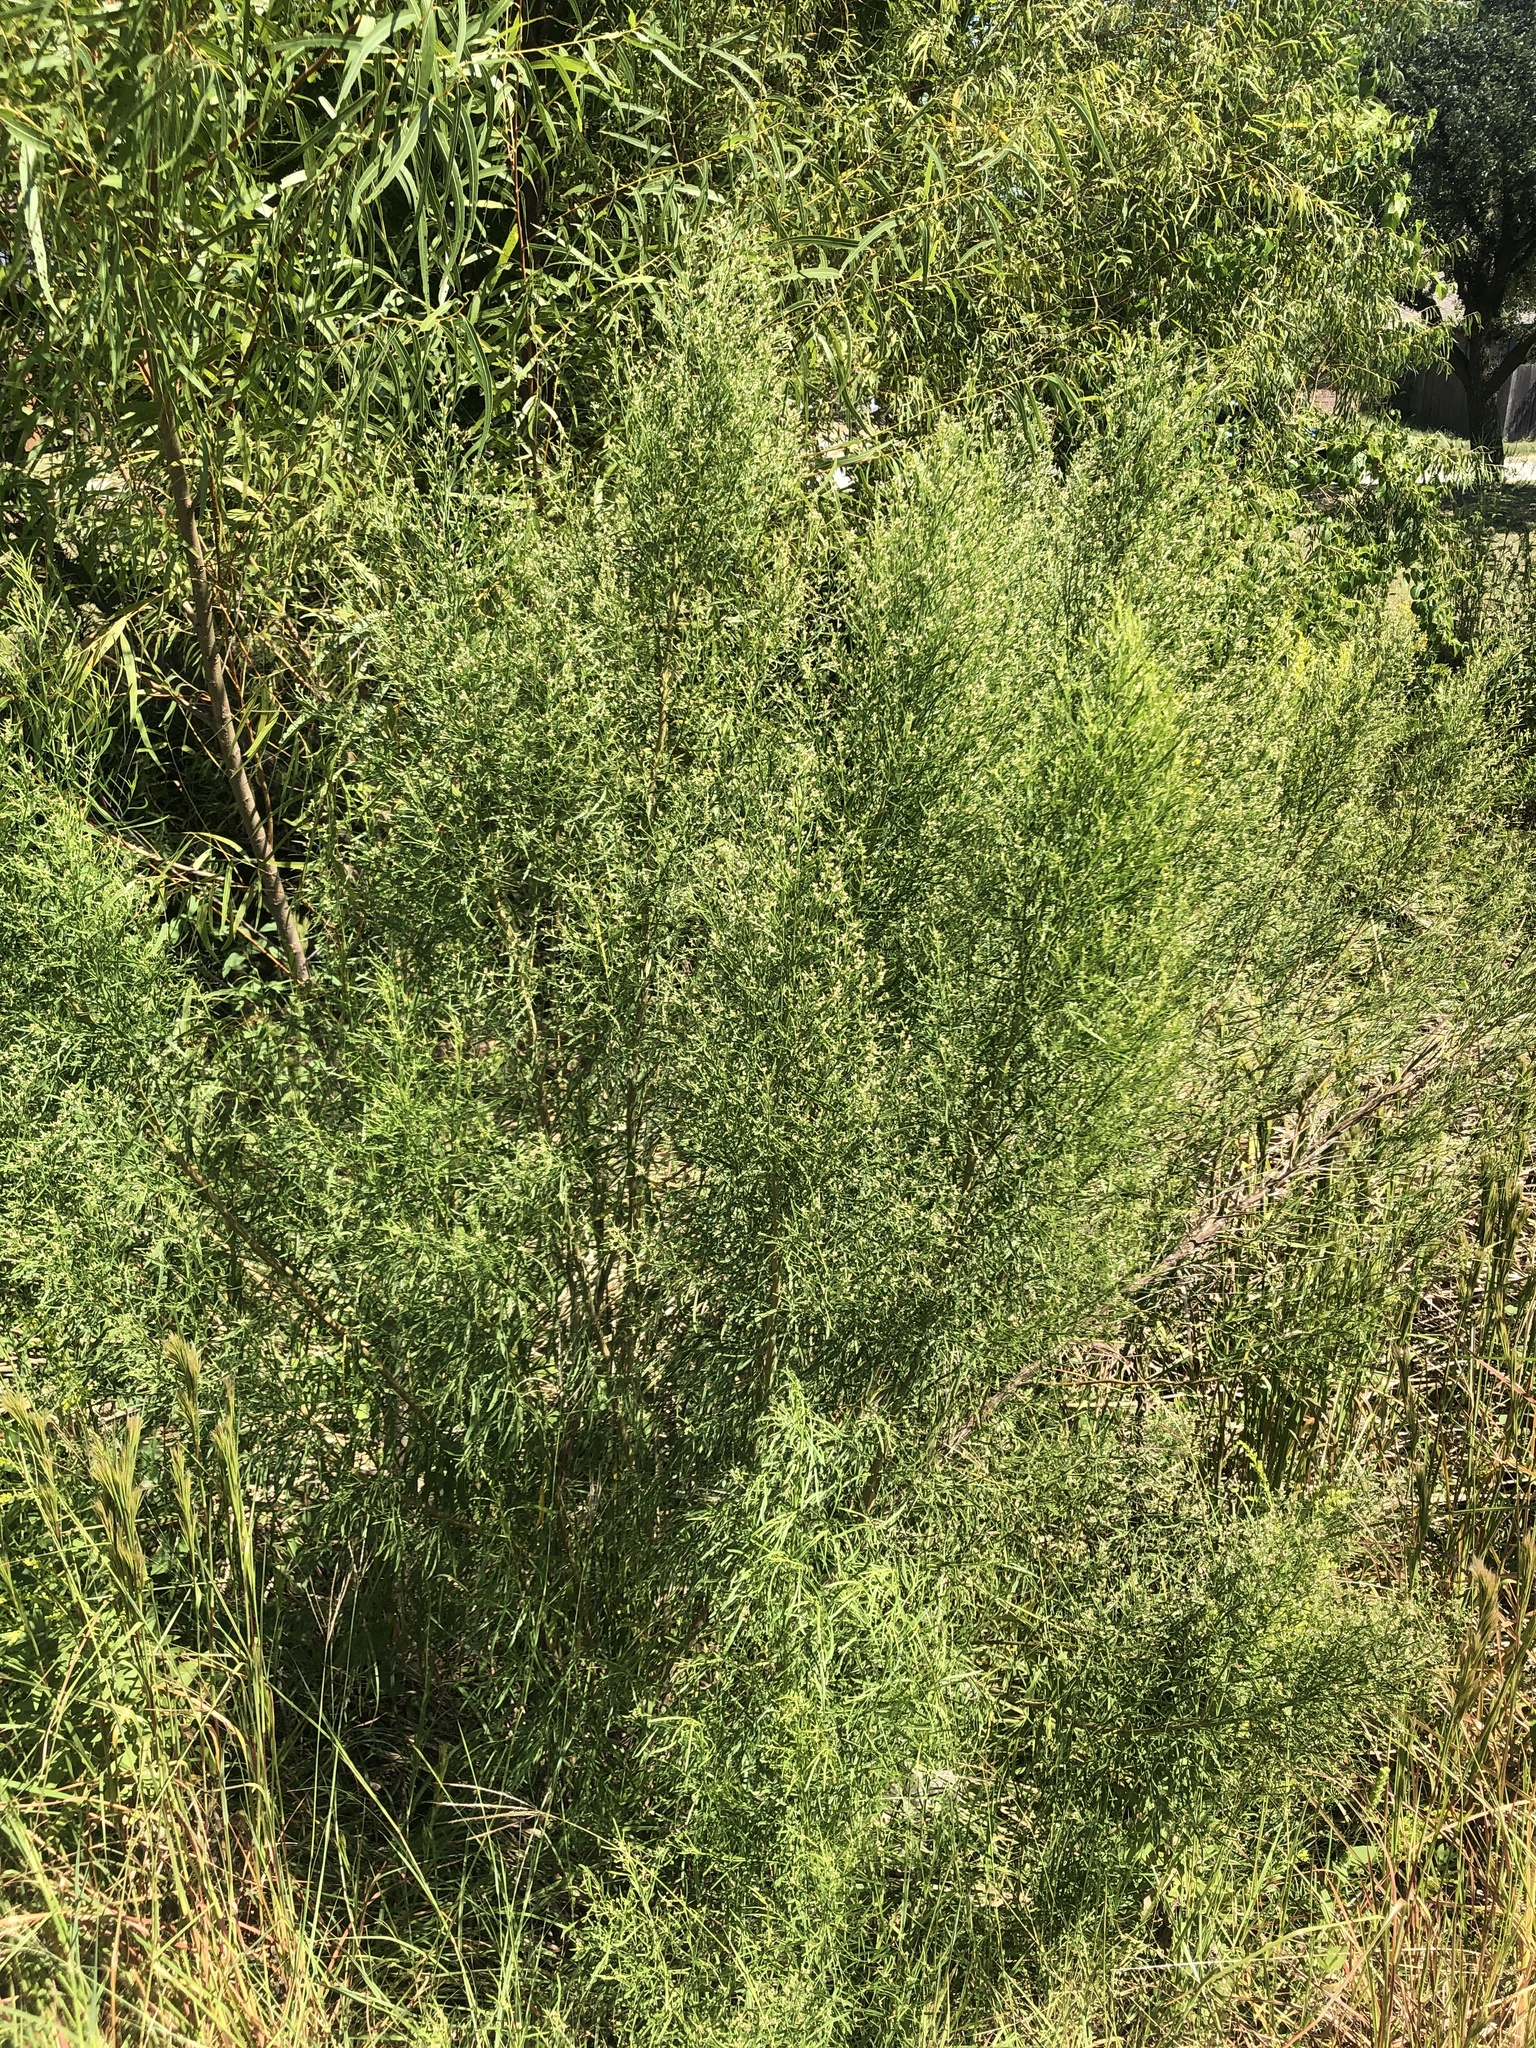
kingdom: Plantae
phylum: Tracheophyta
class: Magnoliopsida
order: Asterales
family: Asteraceae
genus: Baccharis
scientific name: Baccharis neglecta
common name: Roosevelt-weed
